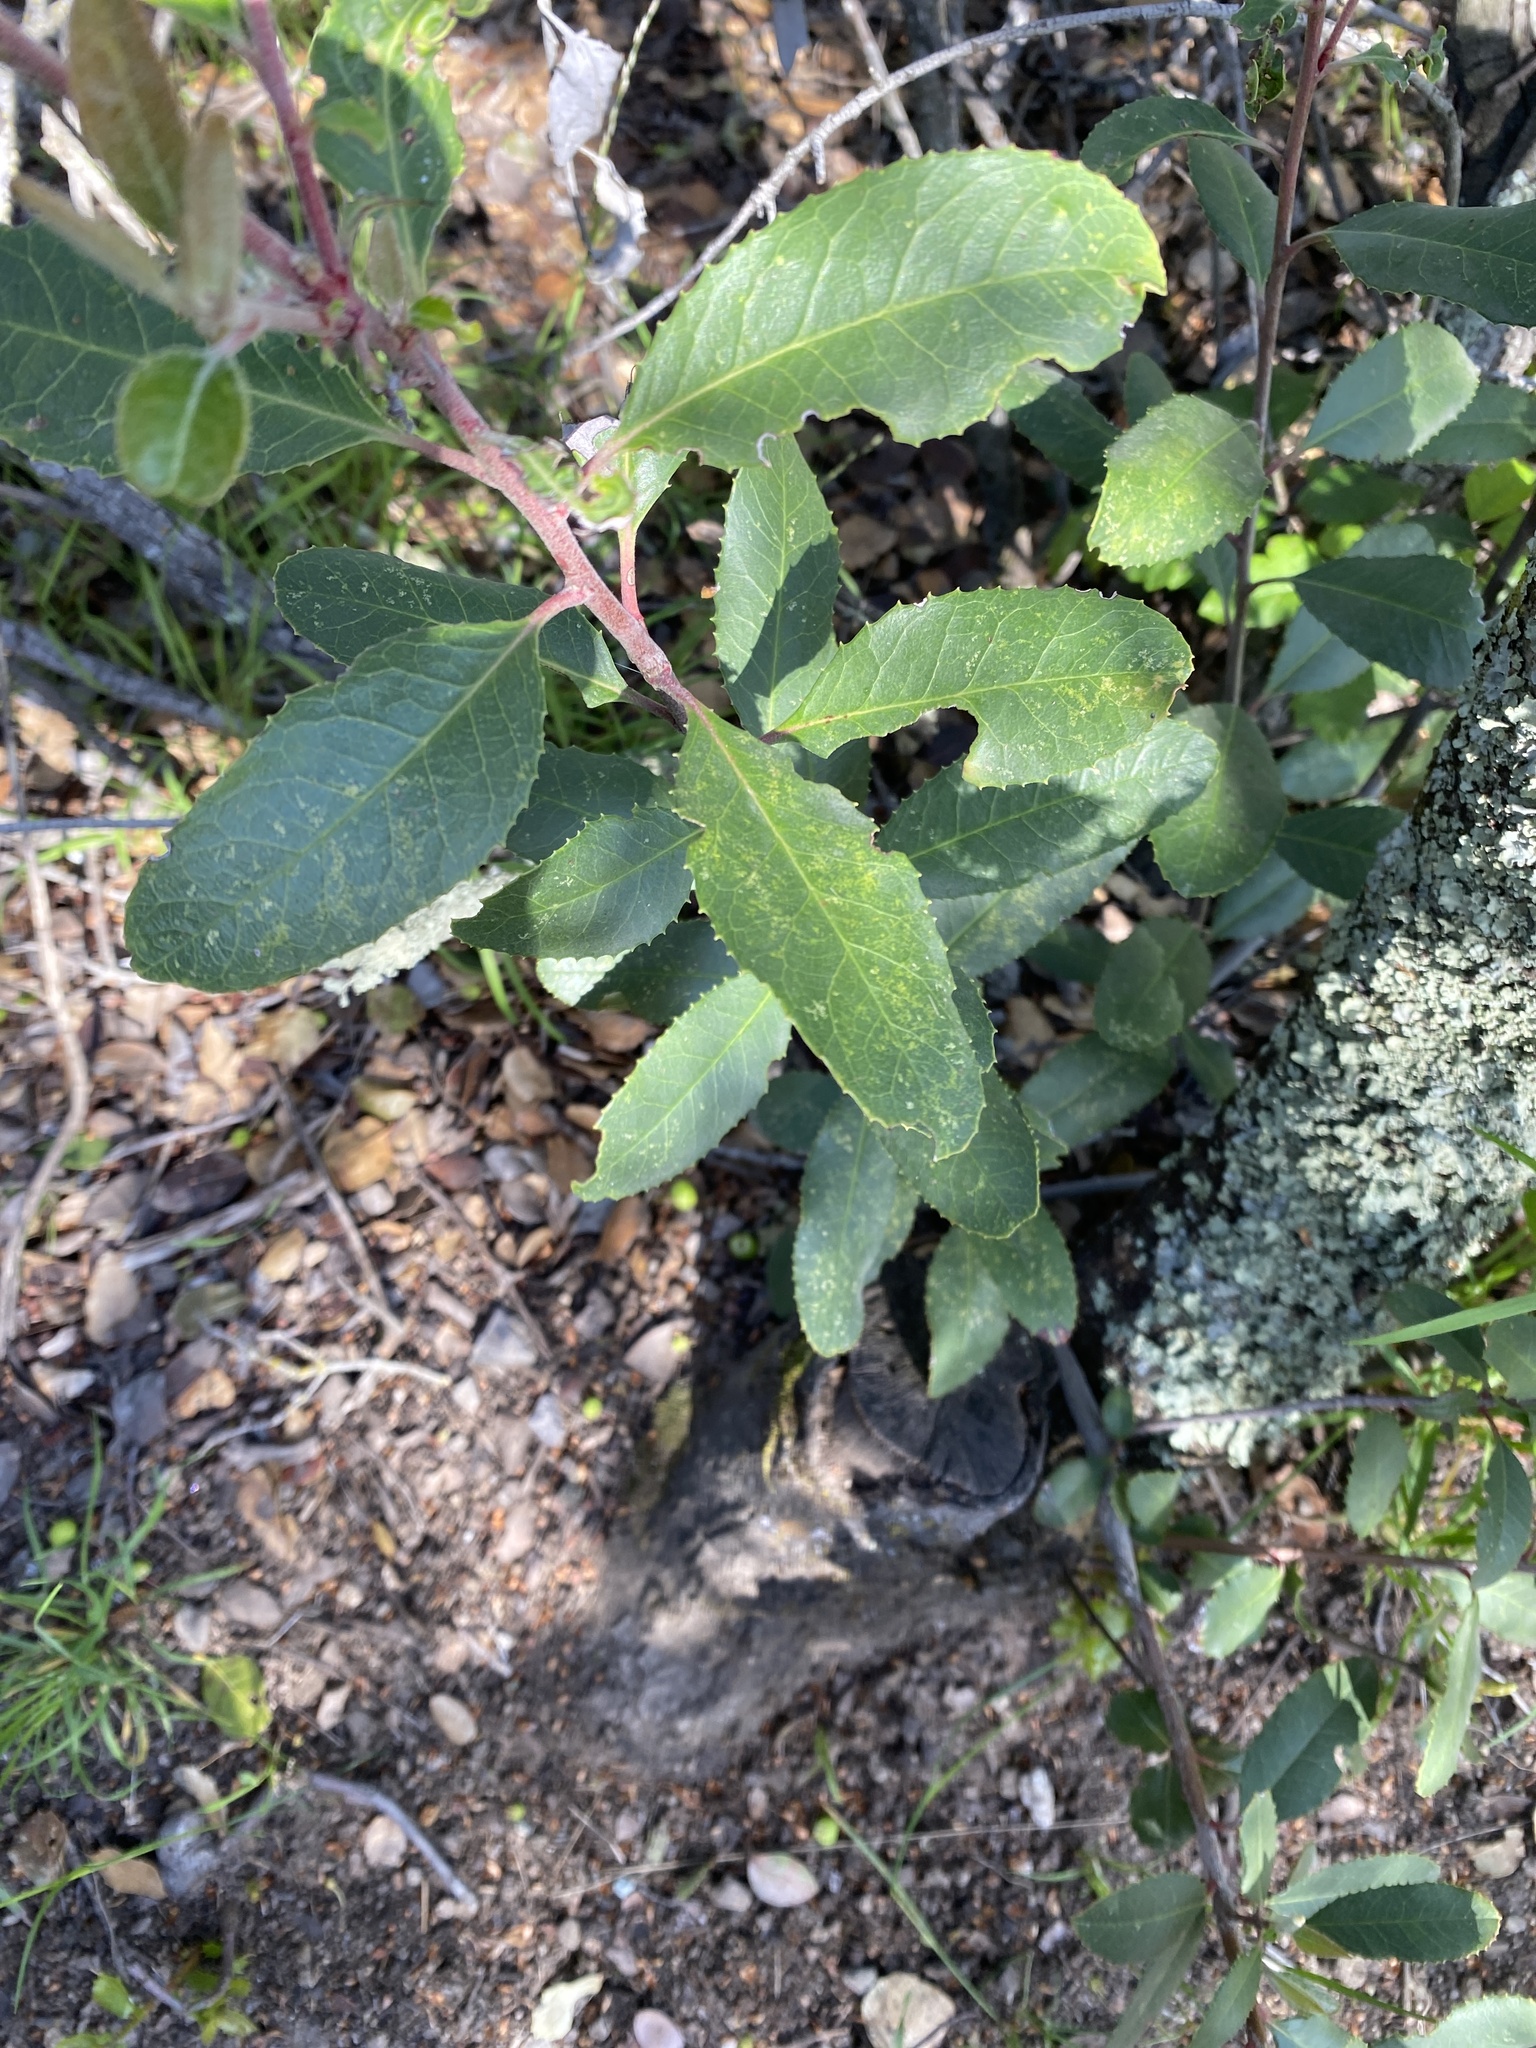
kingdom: Plantae
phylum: Tracheophyta
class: Magnoliopsida
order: Rosales
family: Rosaceae
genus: Heteromeles
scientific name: Heteromeles arbutifolia
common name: California-holly
